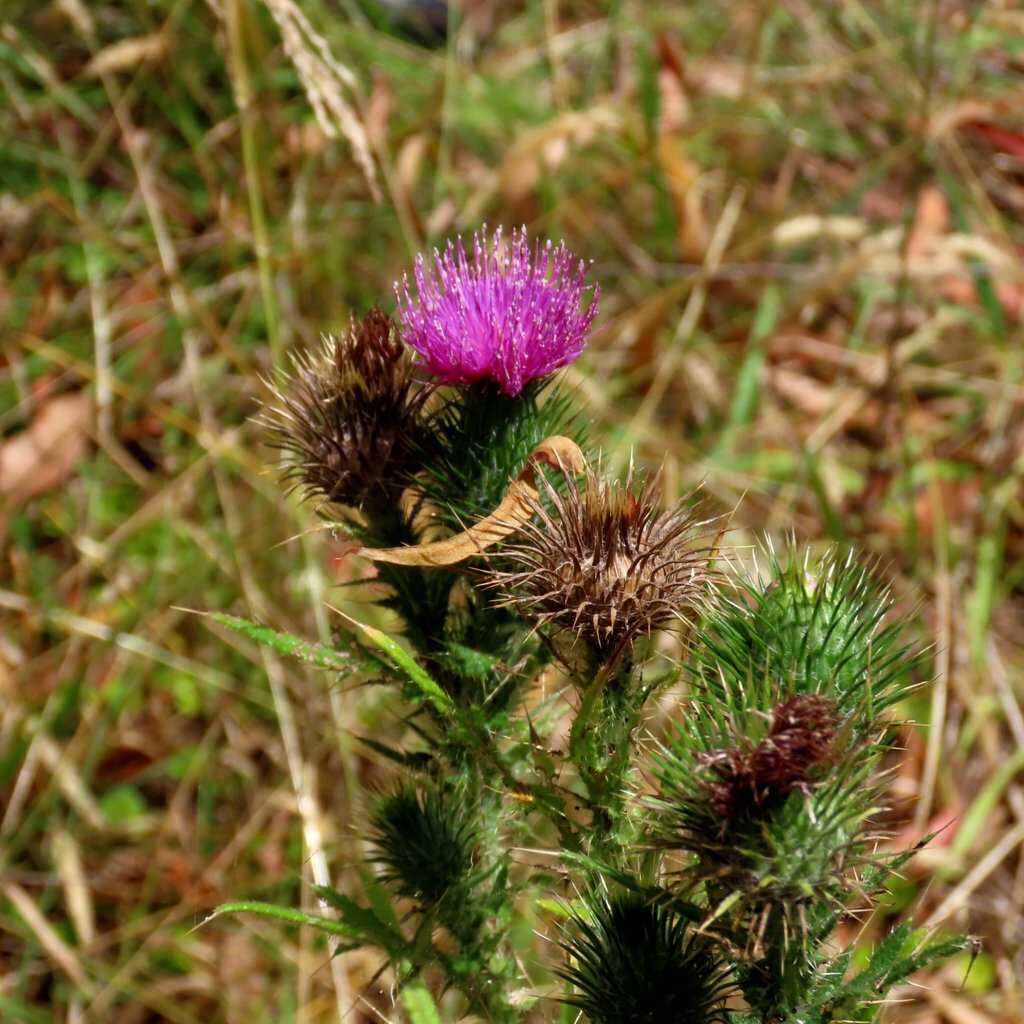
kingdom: Plantae
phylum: Tracheophyta
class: Magnoliopsida
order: Asterales
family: Asteraceae
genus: Cirsium
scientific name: Cirsium vulgare
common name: Bull thistle
